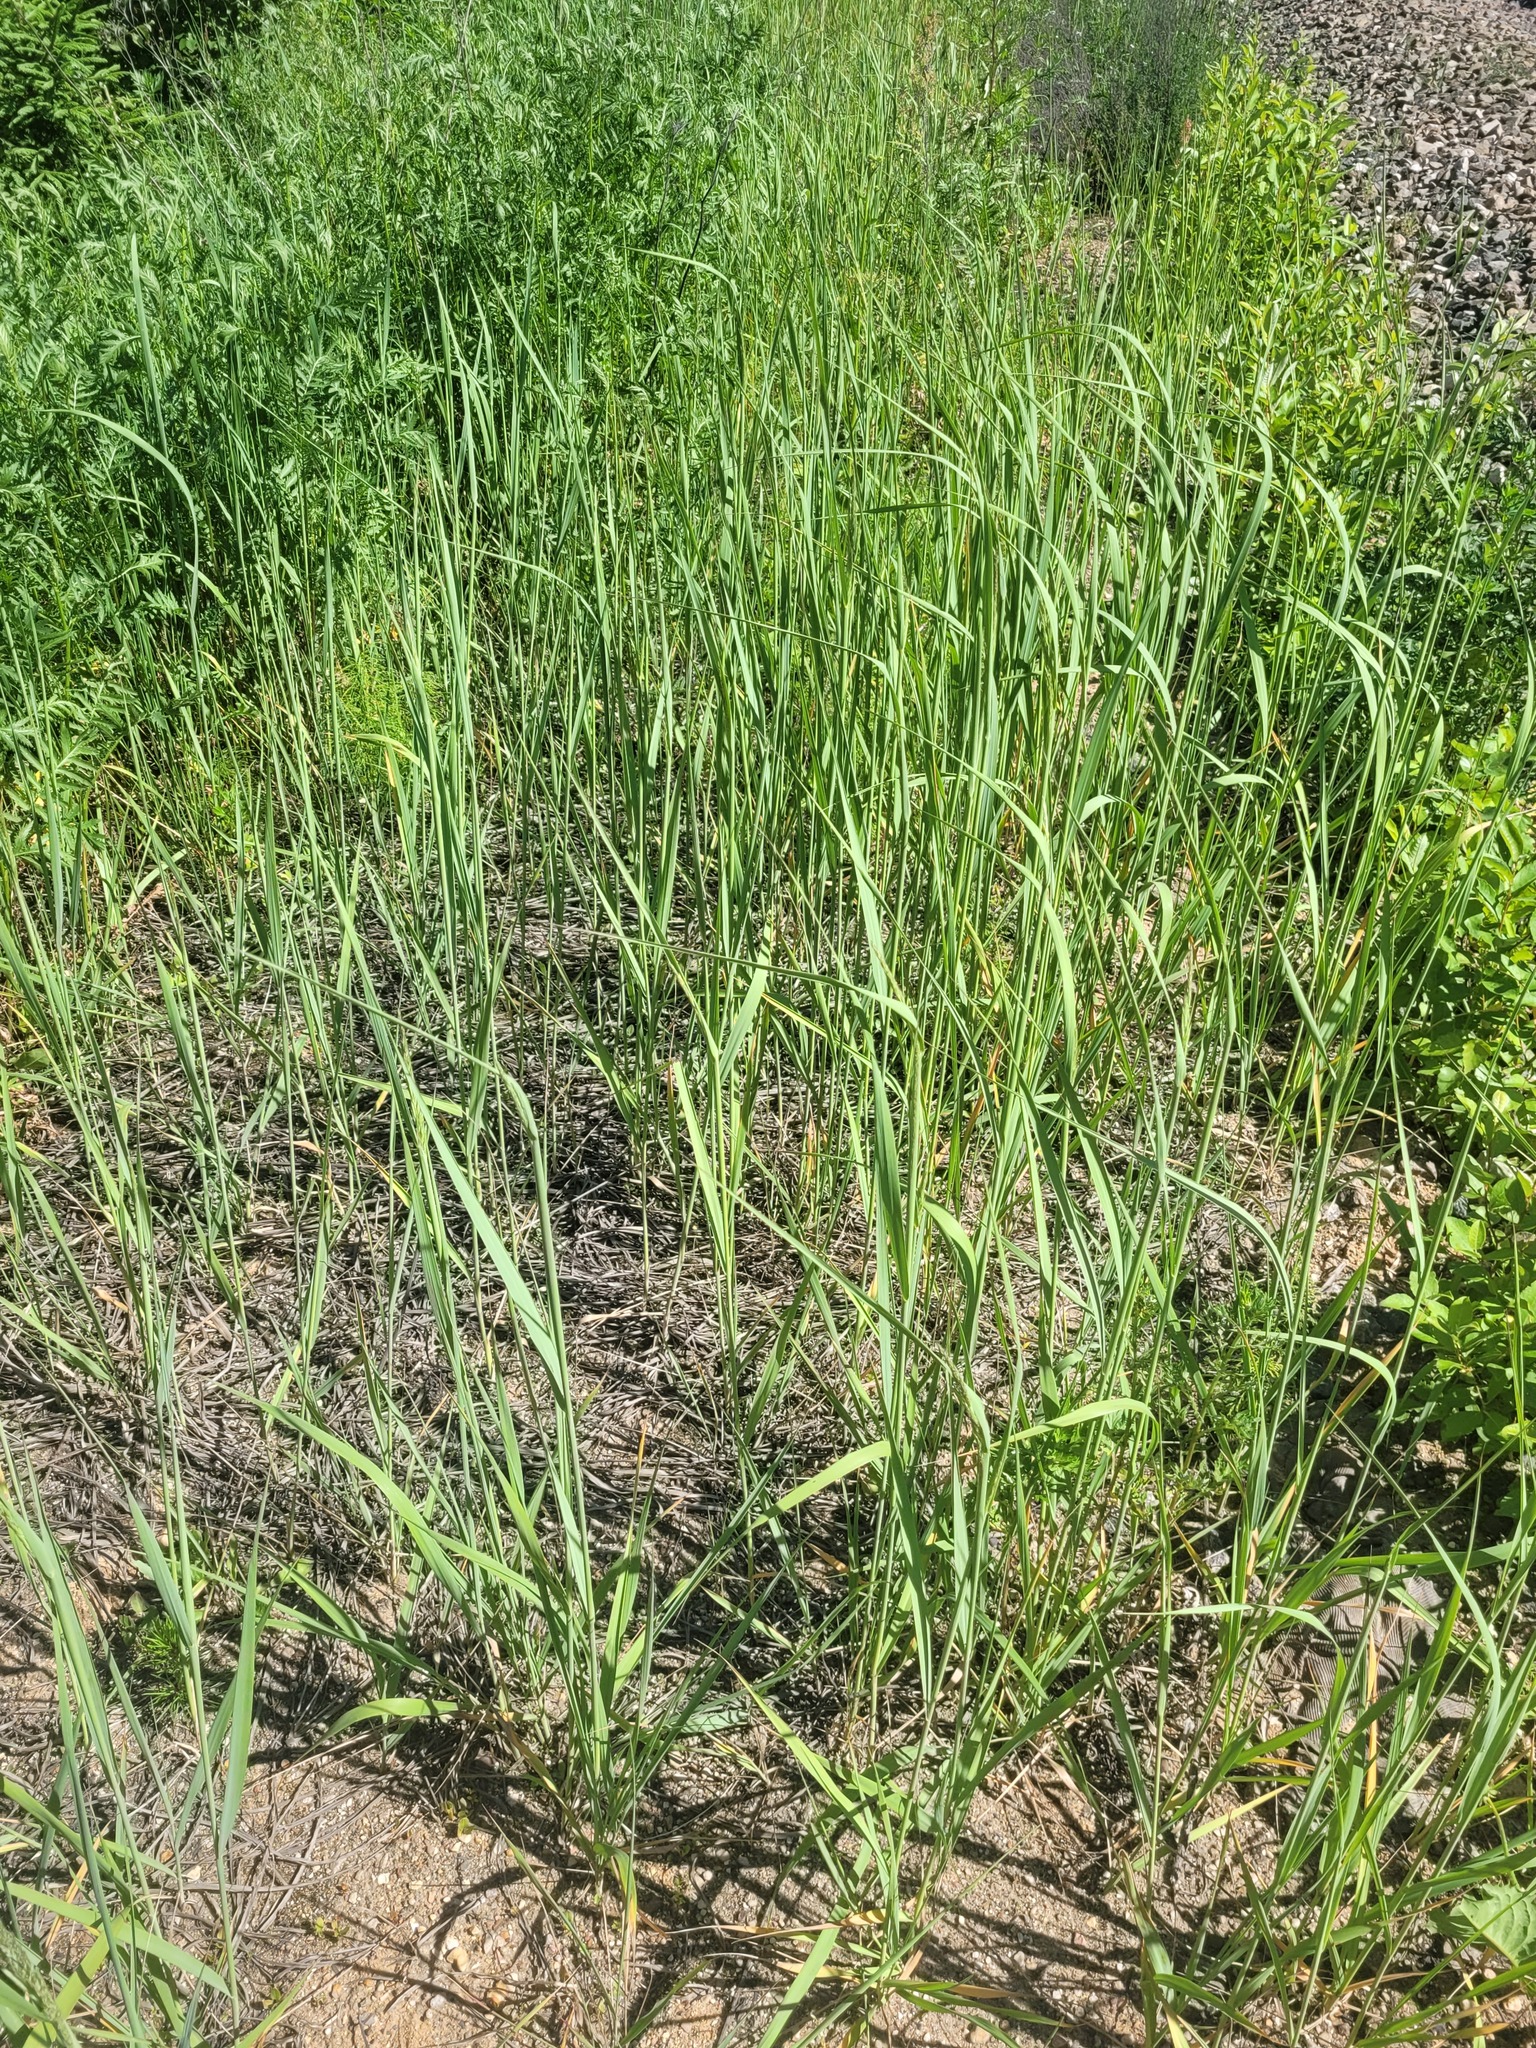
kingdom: Plantae
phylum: Tracheophyta
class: Liliopsida
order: Poales
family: Poaceae
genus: Calamagrostis
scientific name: Calamagrostis epigejos
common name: Wood small-reed
